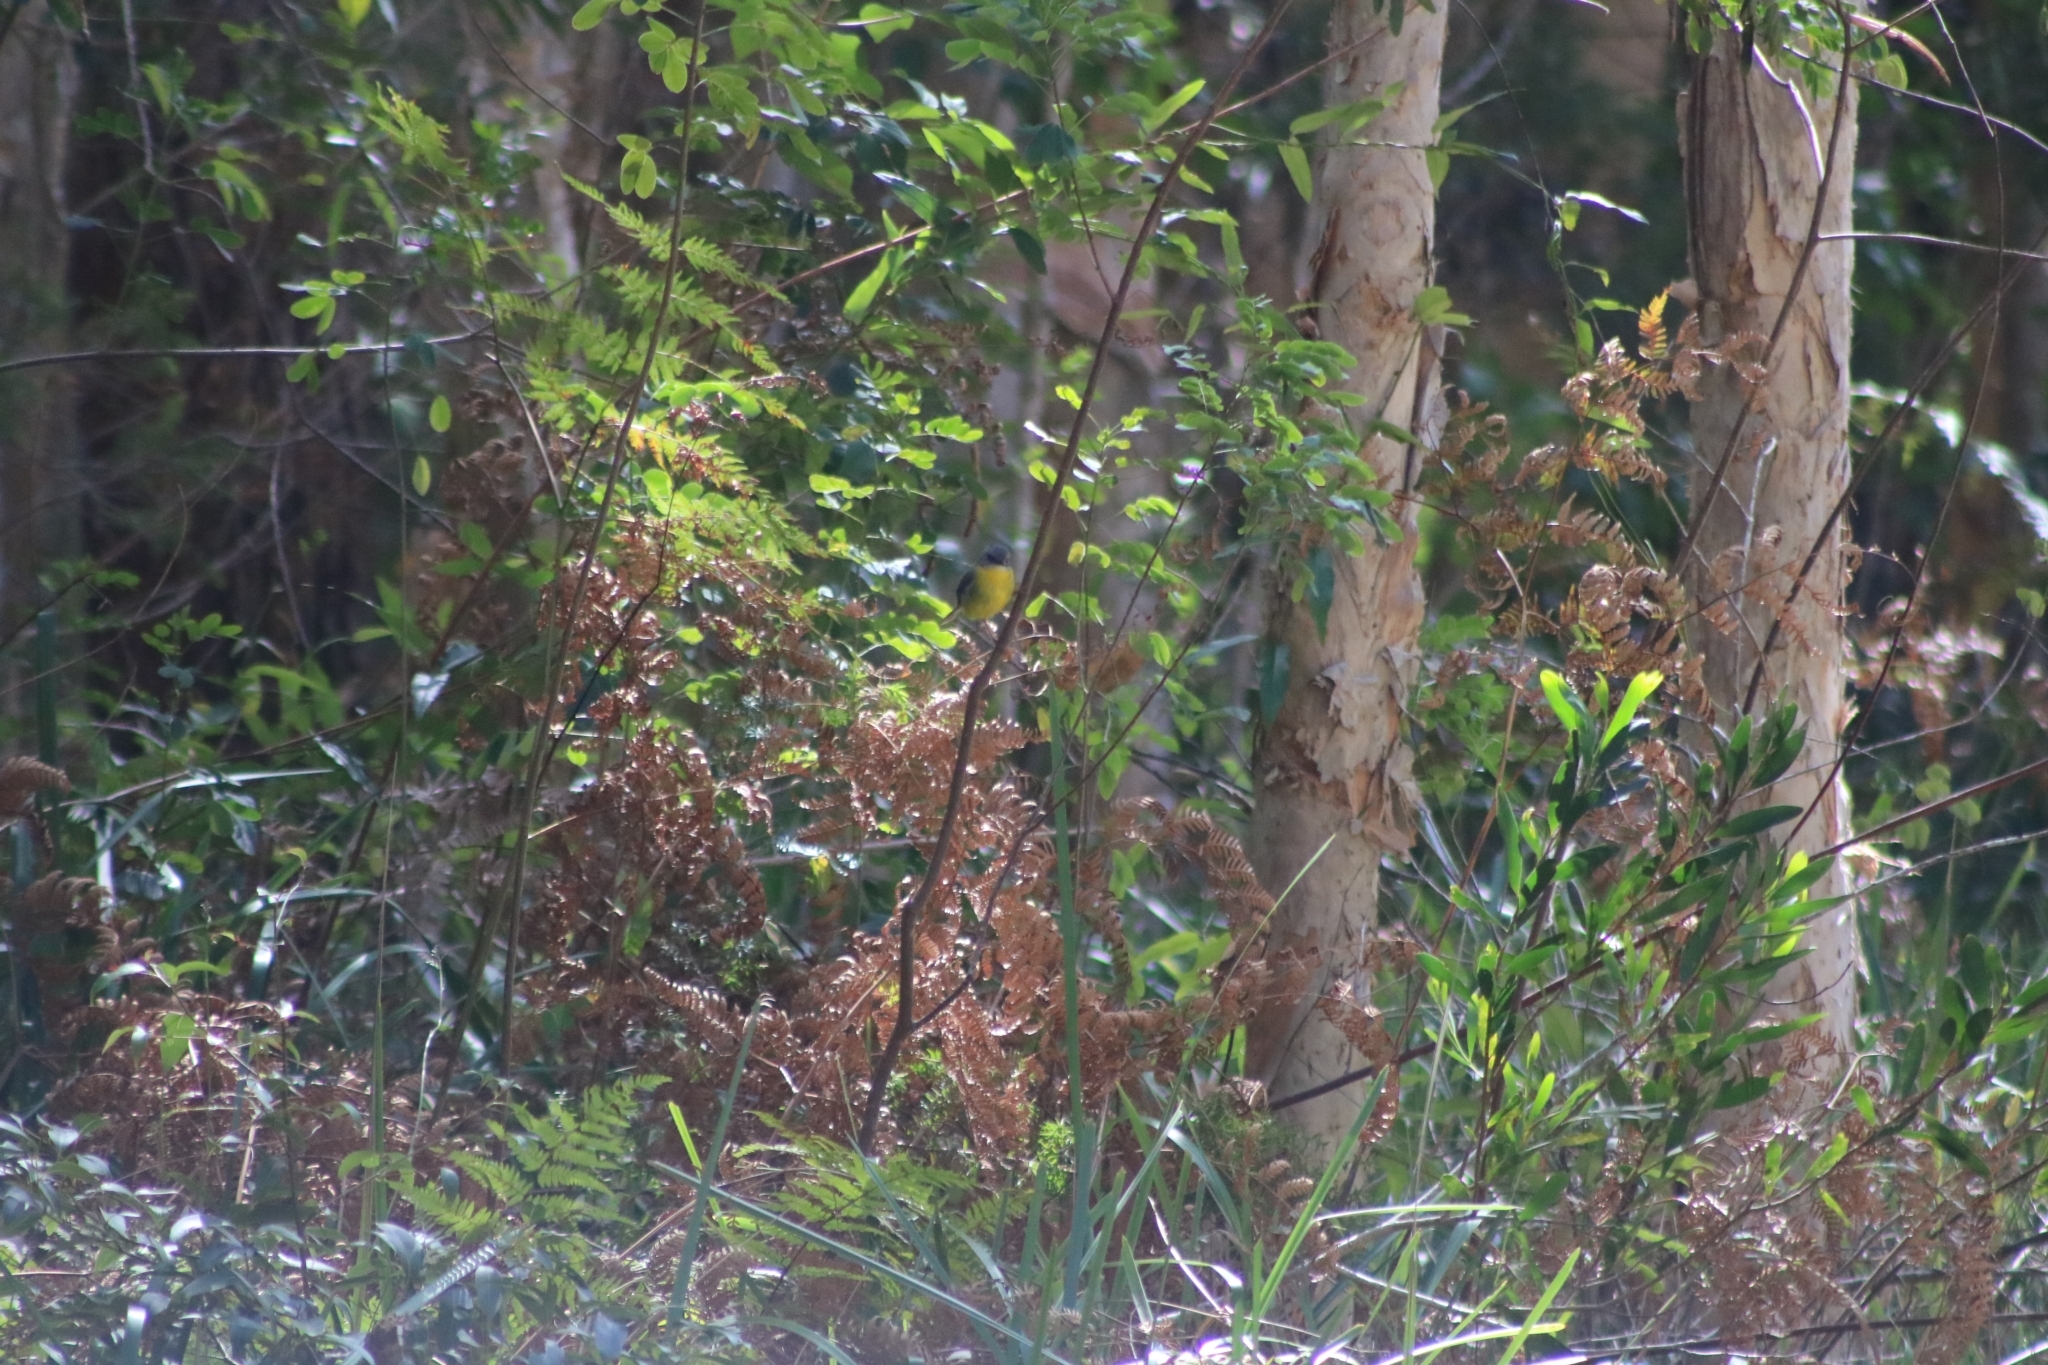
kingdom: Animalia
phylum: Chordata
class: Aves
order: Passeriformes
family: Petroicidae
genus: Eopsaltria
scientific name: Eopsaltria australis
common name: Eastern yellow robin
